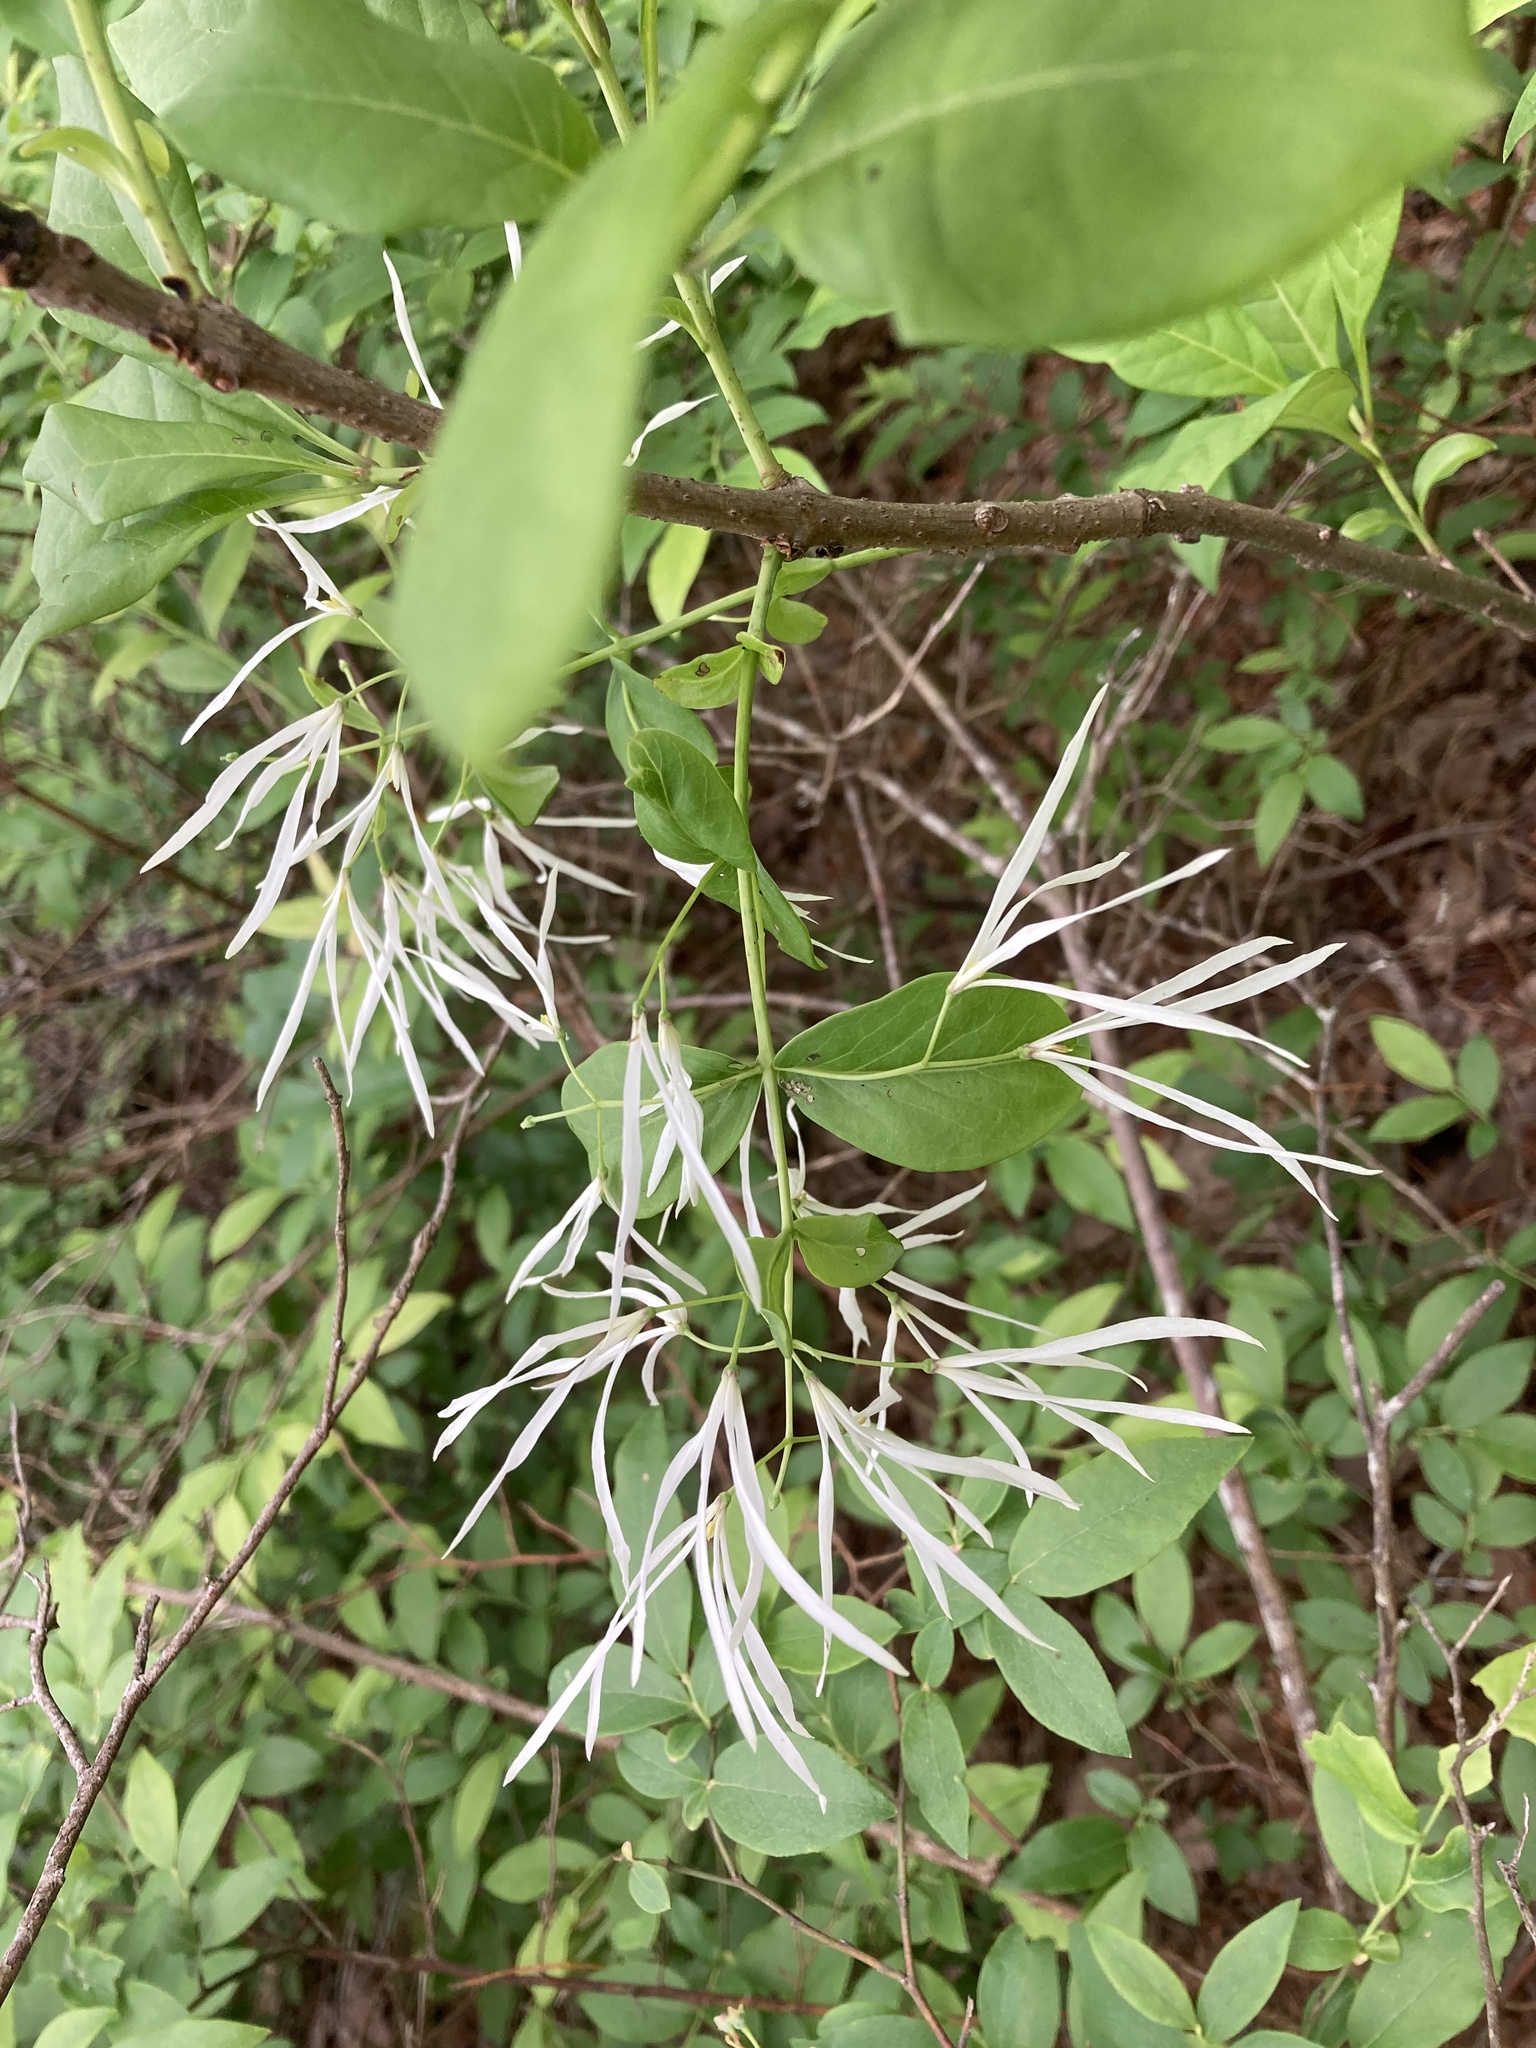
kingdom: Plantae
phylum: Tracheophyta
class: Magnoliopsida
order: Lamiales
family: Oleaceae
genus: Chionanthus
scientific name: Chionanthus virginicus
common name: American fringetree
